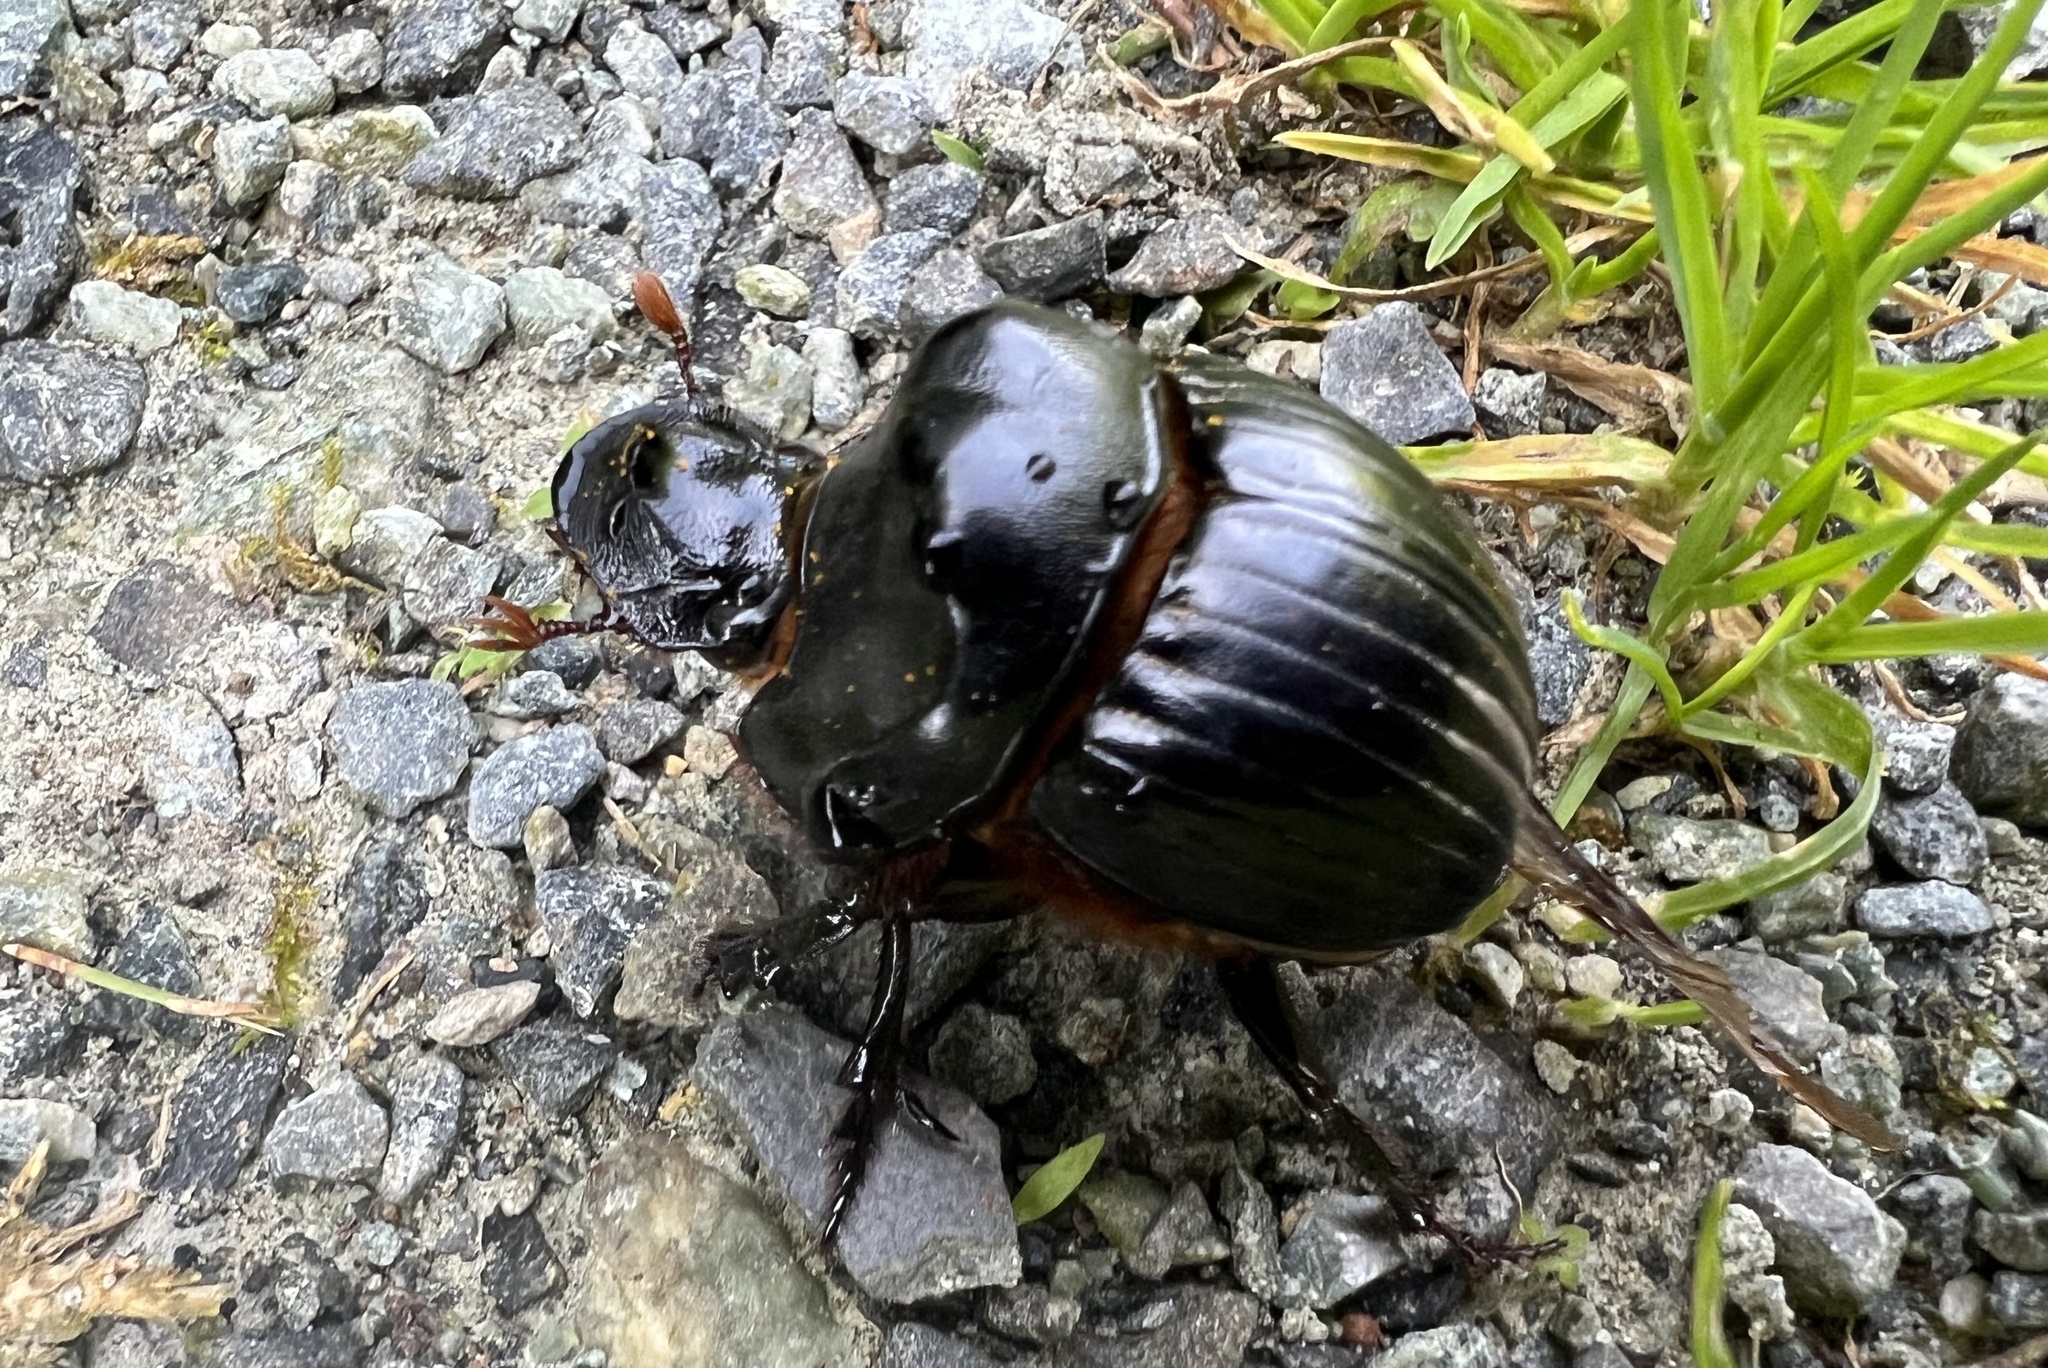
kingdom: Animalia
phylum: Arthropoda
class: Insecta
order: Coleoptera
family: Scarabaeidae
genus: Dichotomius
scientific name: Dichotomius carolinus
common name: Carolina copris
